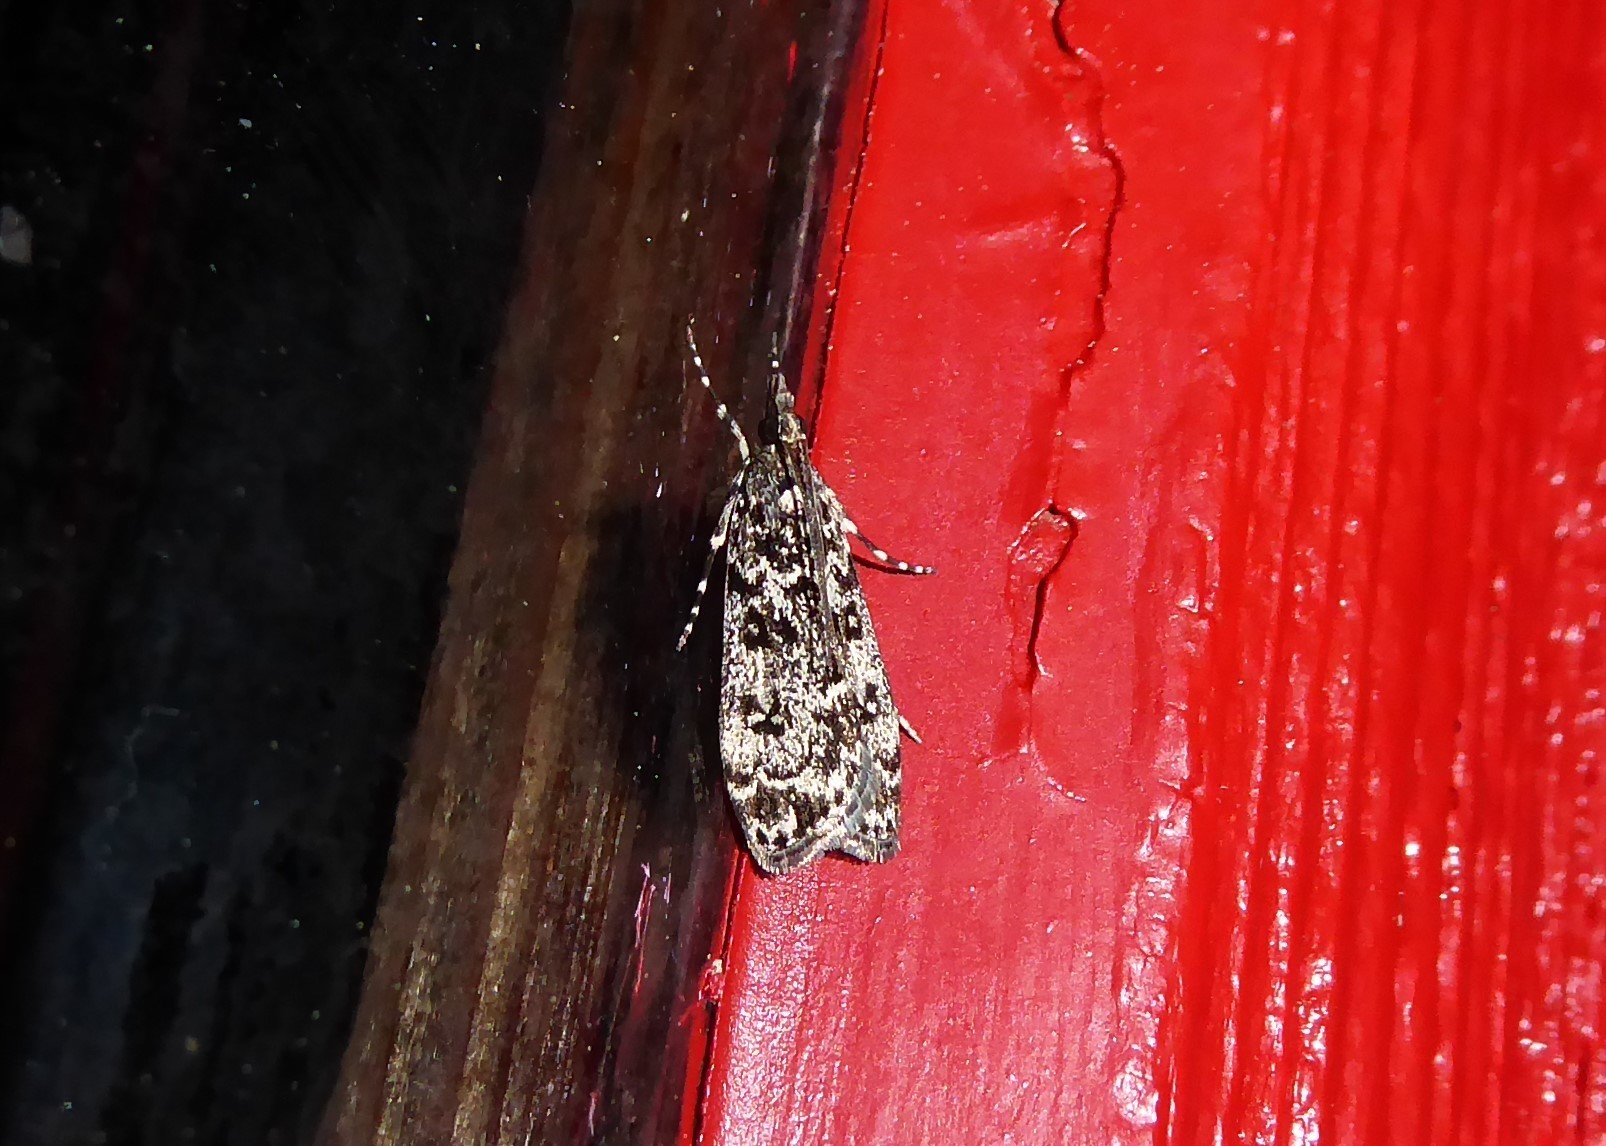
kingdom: Animalia
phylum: Arthropoda
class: Insecta
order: Lepidoptera
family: Crambidae
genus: Eudonia
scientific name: Eudonia philerga
